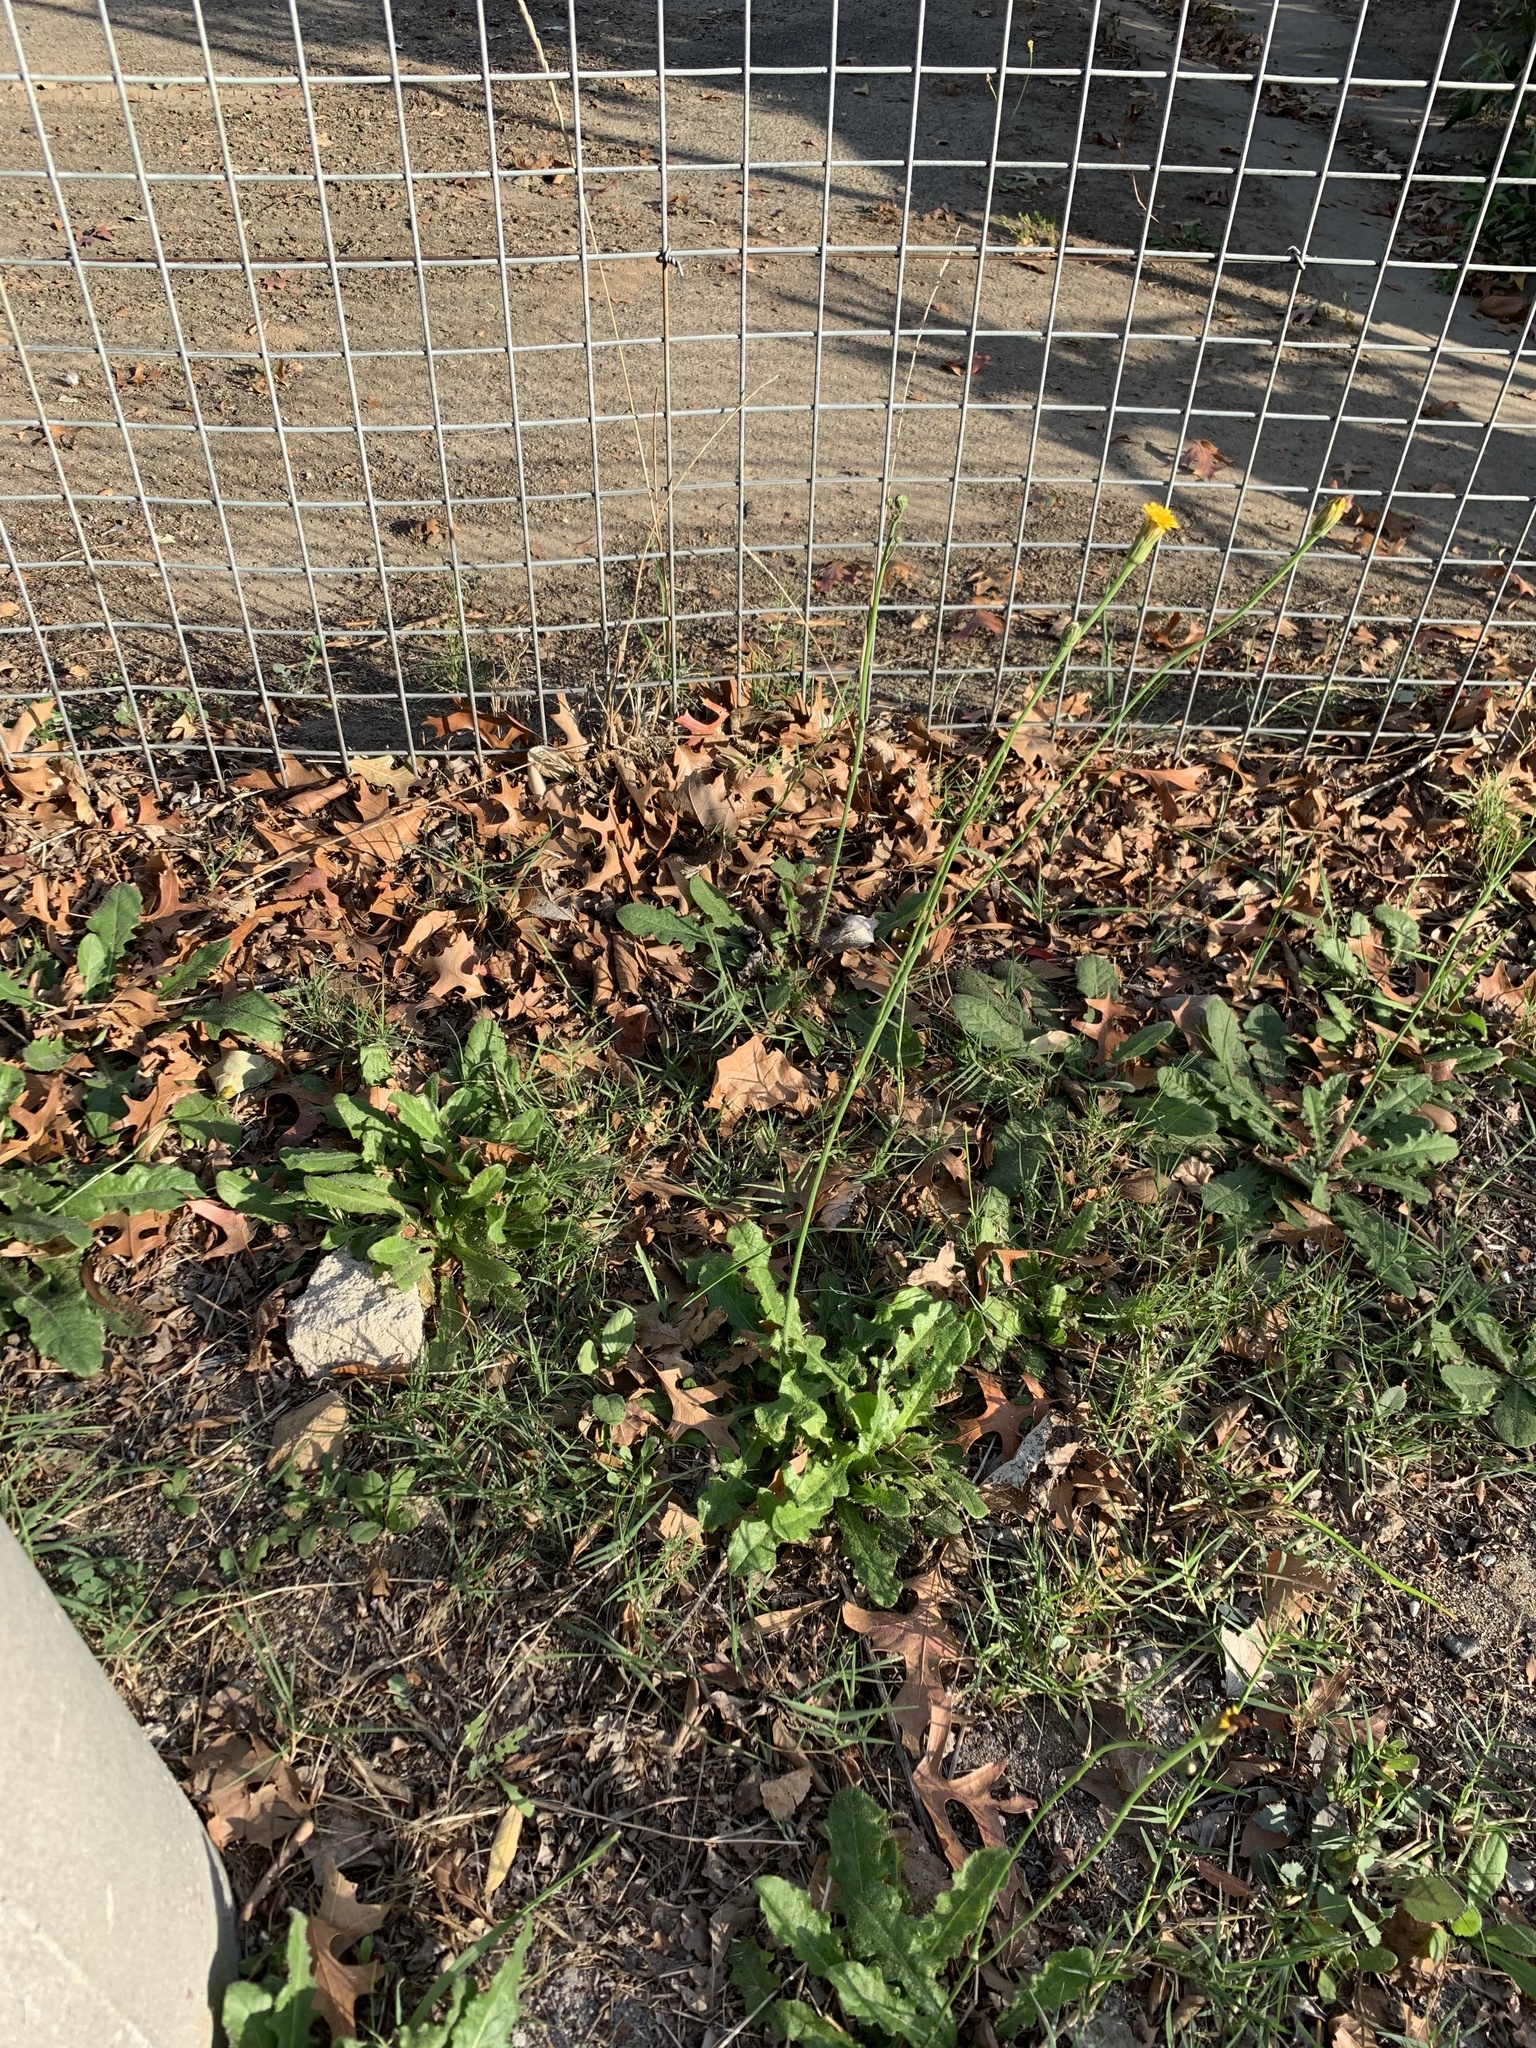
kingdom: Plantae
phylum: Tracheophyta
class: Magnoliopsida
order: Asterales
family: Asteraceae
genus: Hypochaeris
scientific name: Hypochaeris radicata
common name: Flatweed
